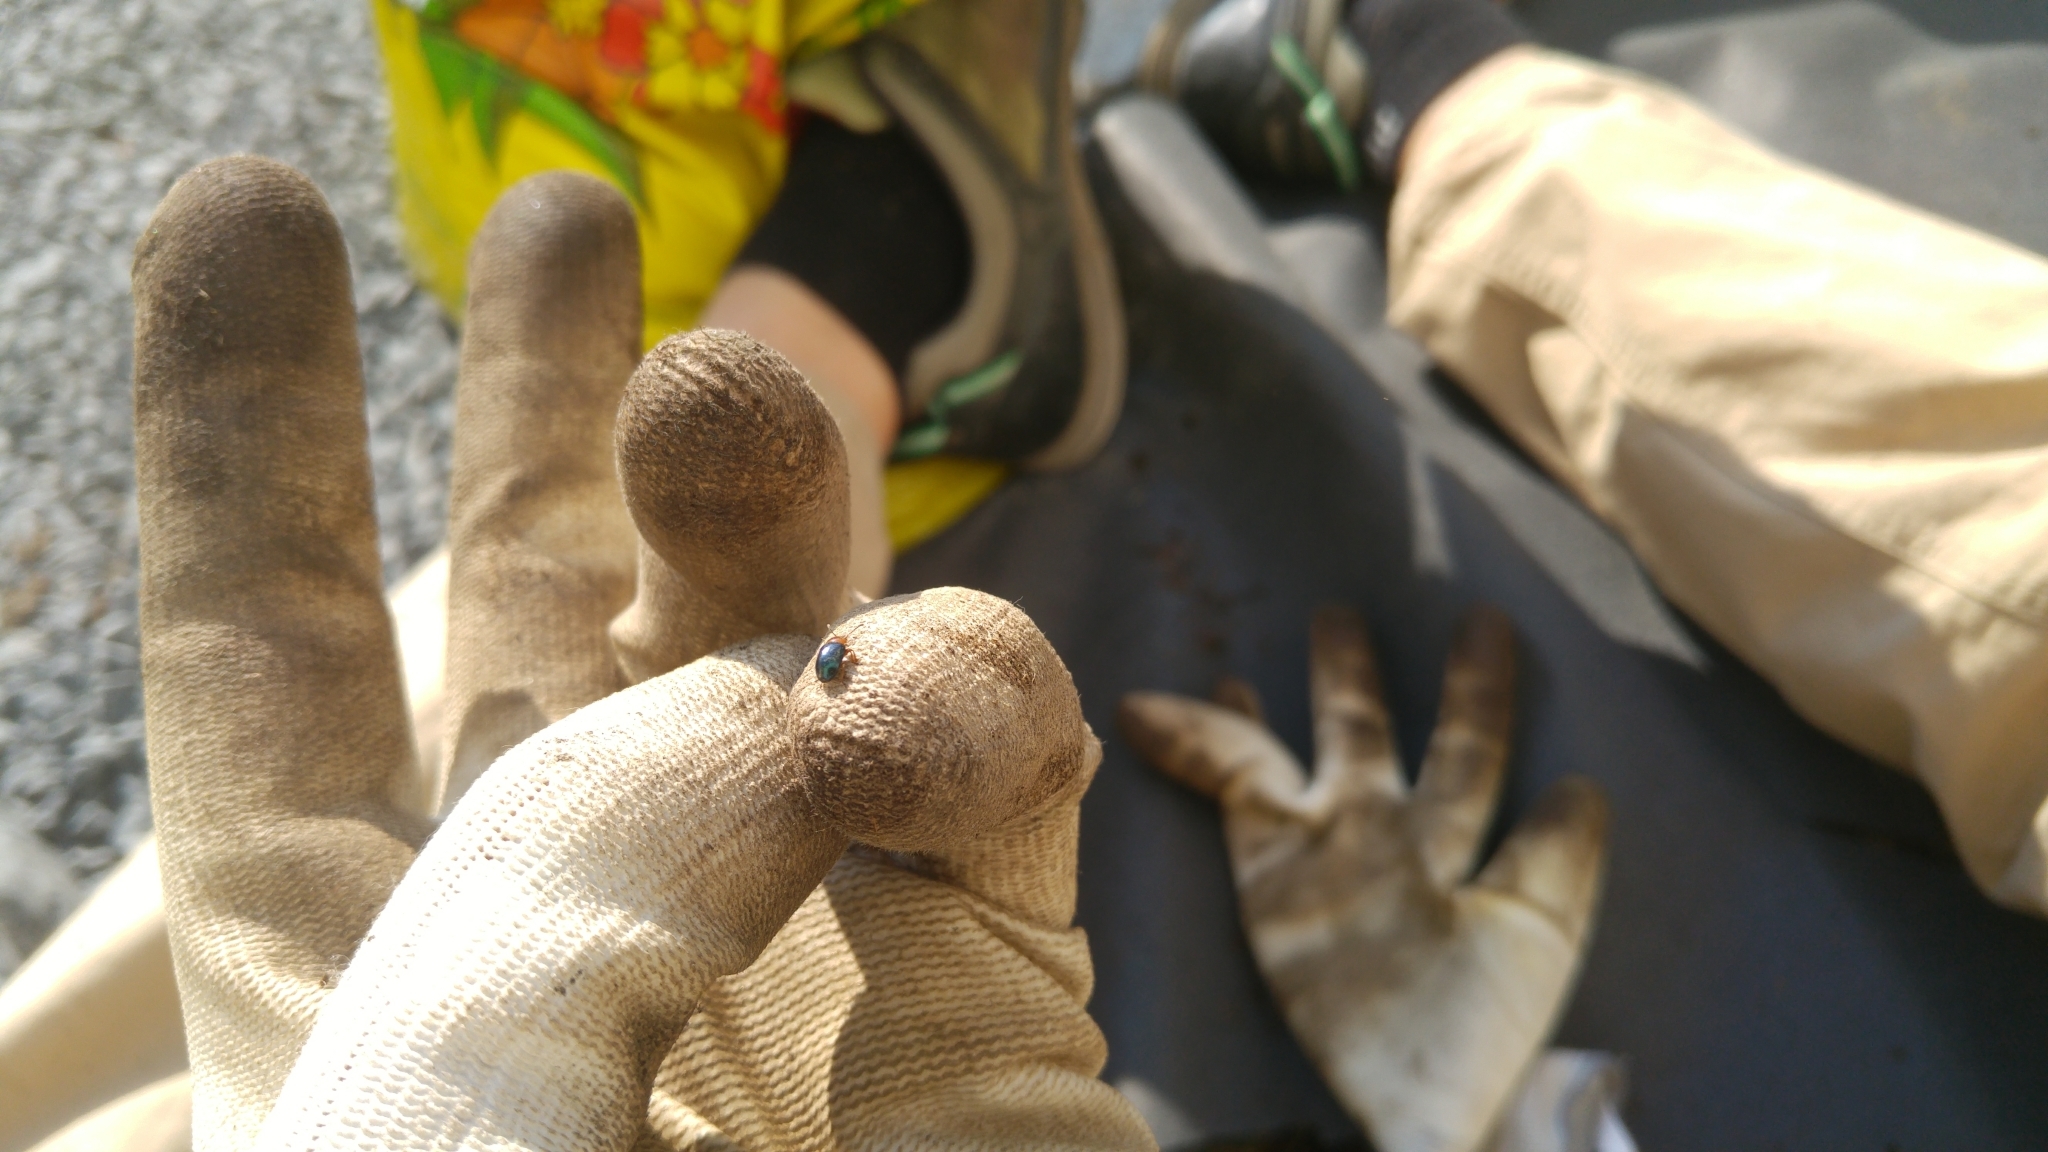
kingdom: Animalia
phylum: Arthropoda
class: Insecta
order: Coleoptera
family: Chrysomelidae
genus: Gastrophysa
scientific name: Gastrophysa polygoni
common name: Knotweed leaf beetle
